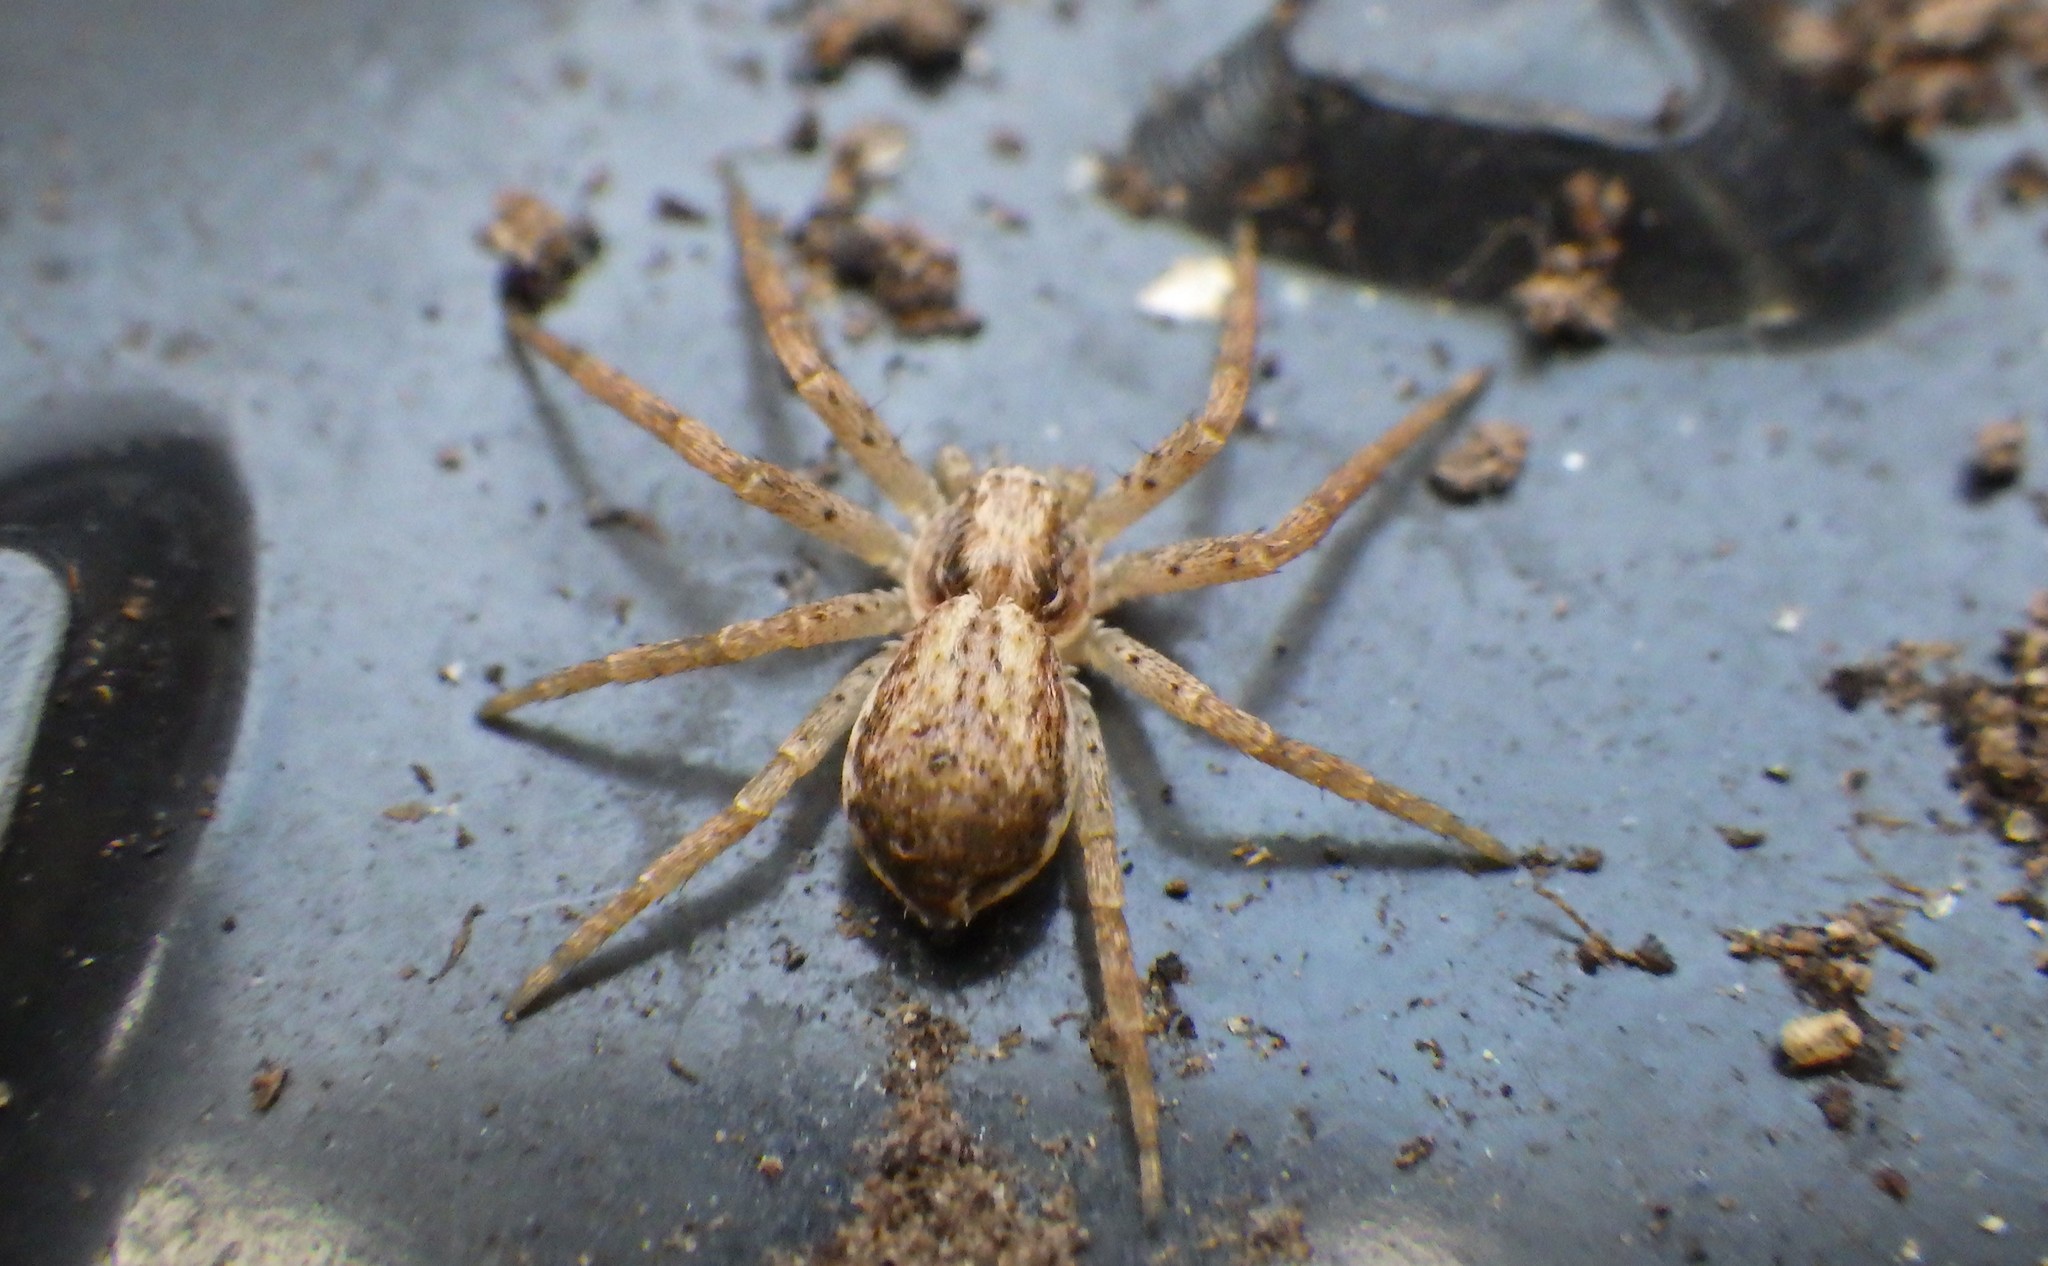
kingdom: Animalia
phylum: Arthropoda
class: Arachnida
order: Araneae
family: Philodromidae
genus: Philodromus
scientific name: Philodromus dispar
